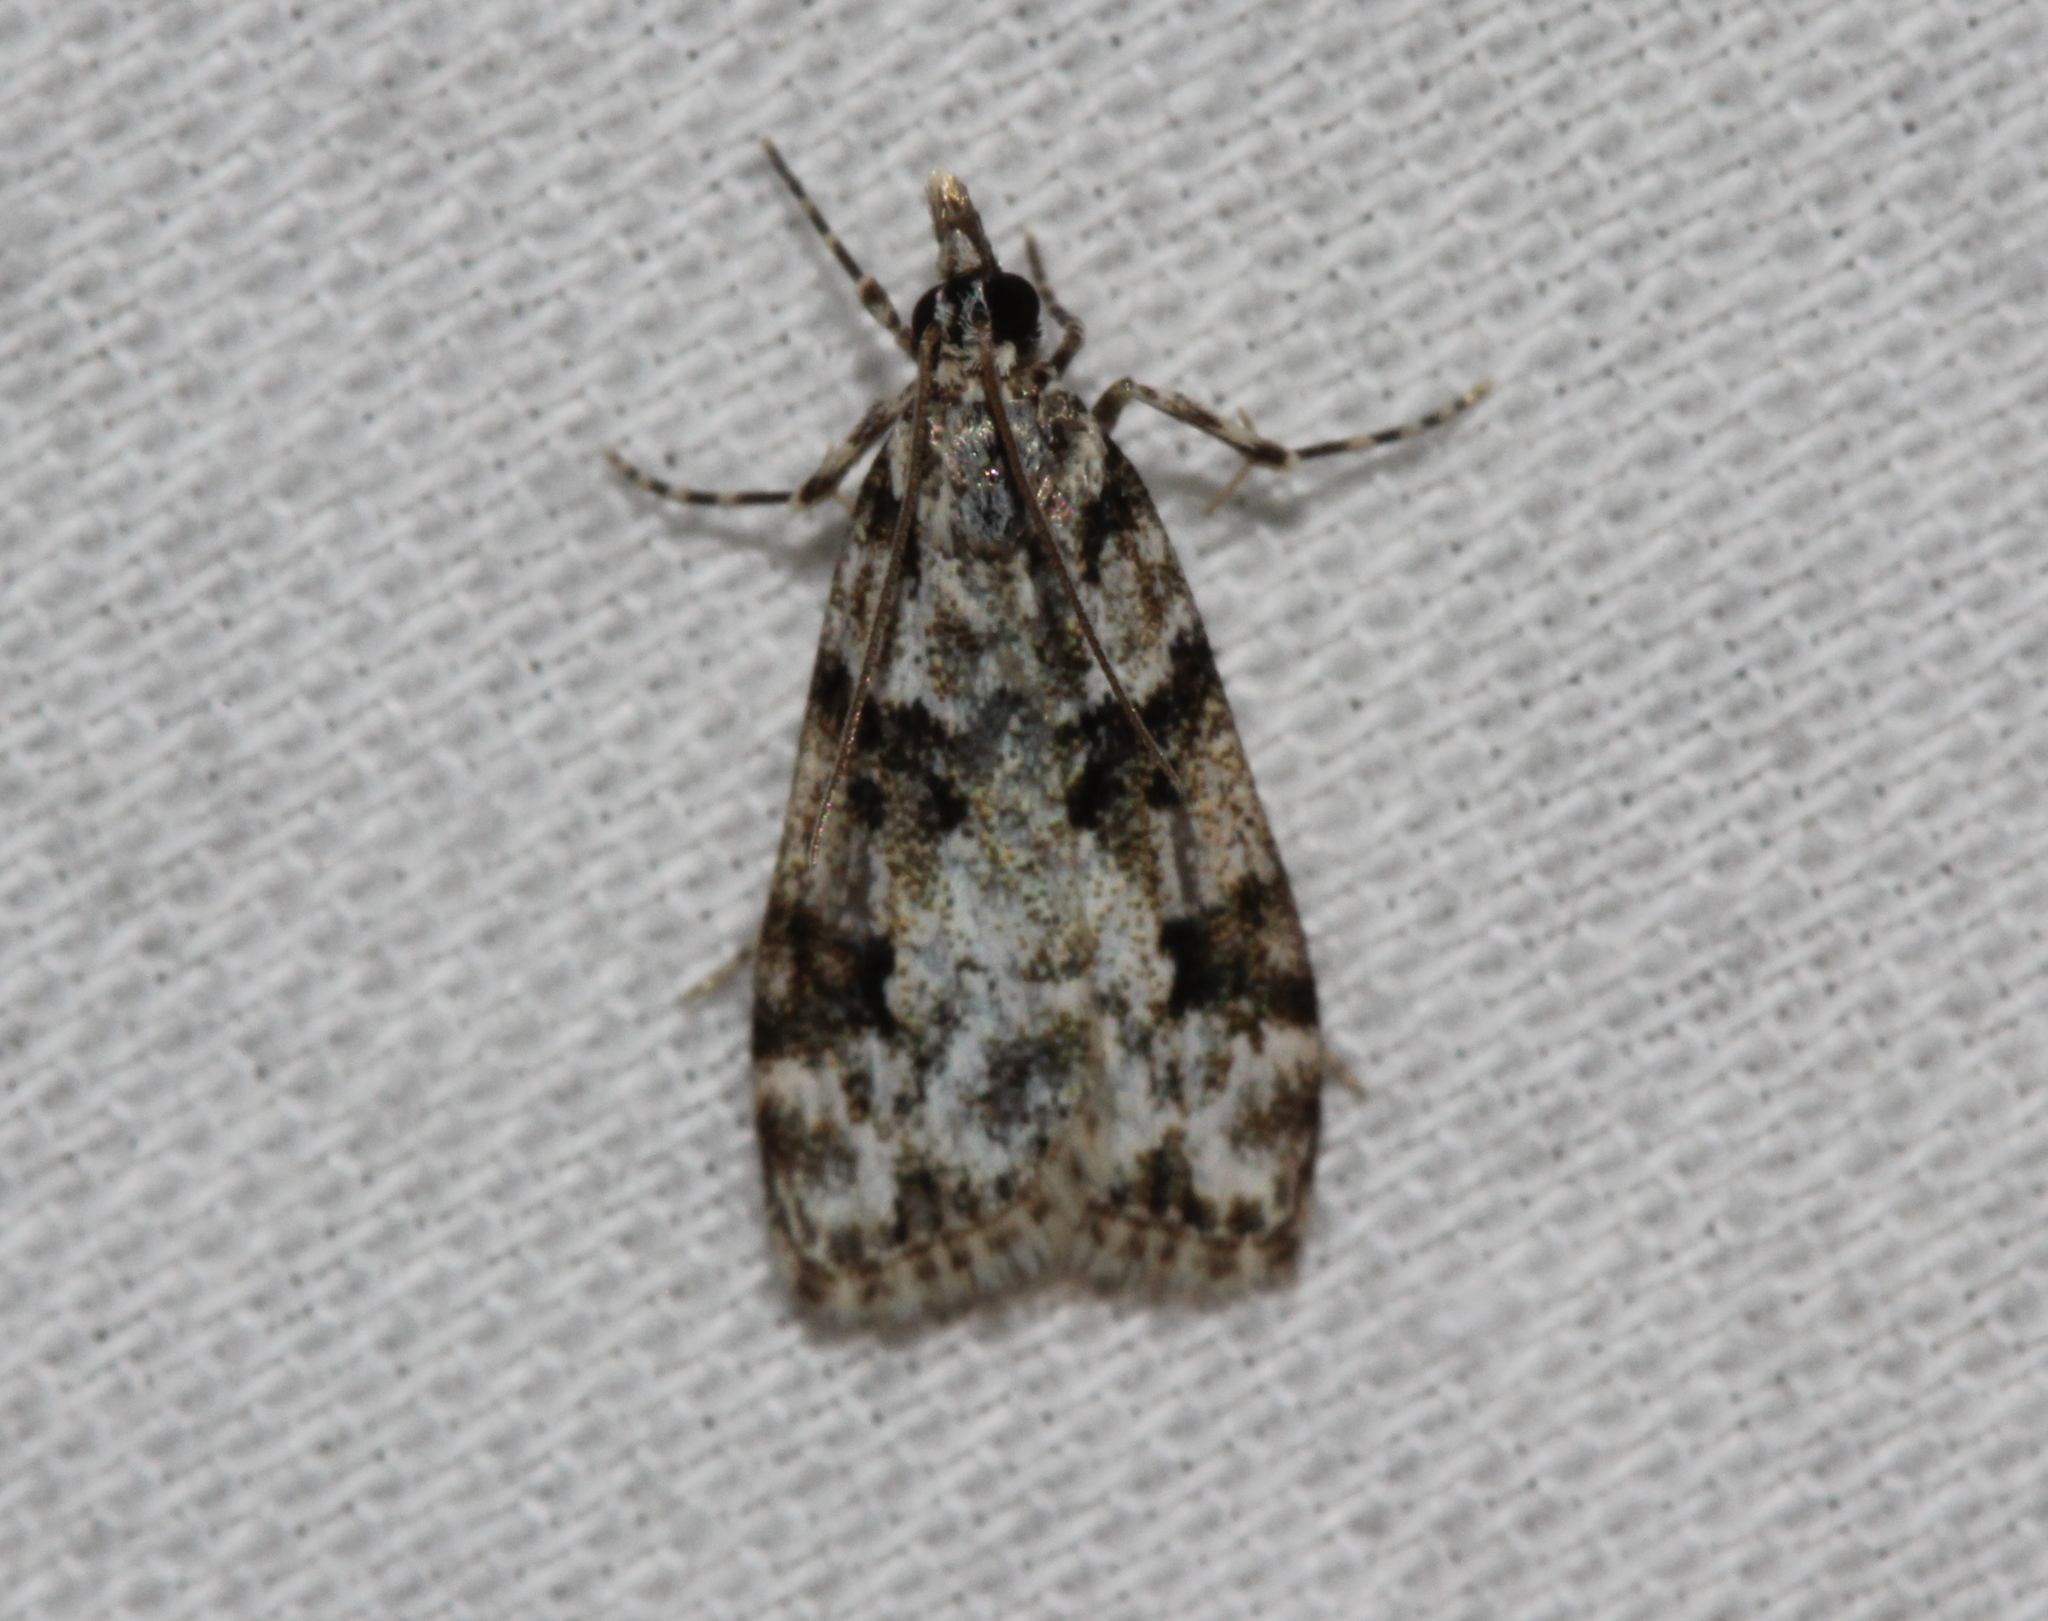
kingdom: Animalia
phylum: Arthropoda
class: Insecta
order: Lepidoptera
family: Crambidae
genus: Eudonia
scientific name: Eudonia delunella
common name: Pied grey
